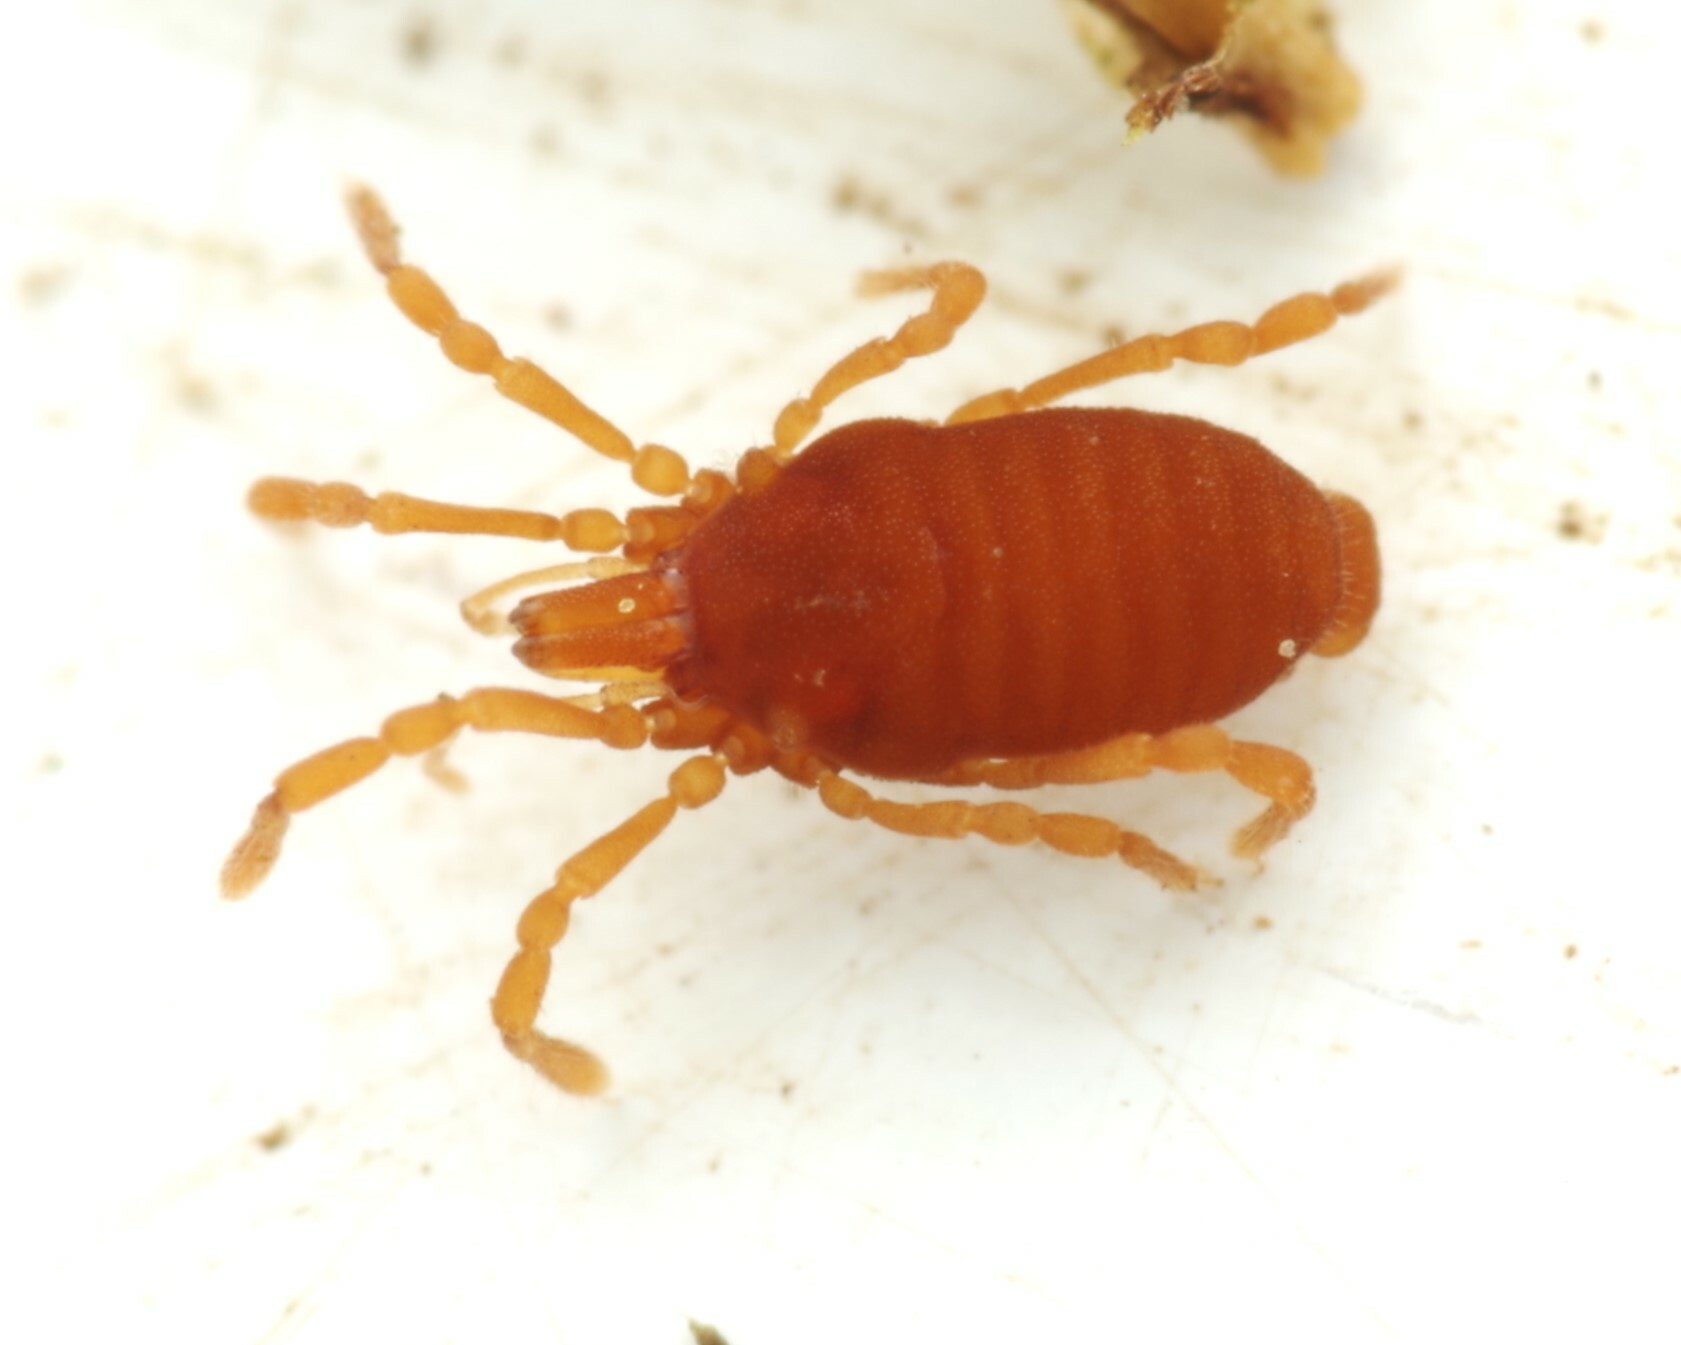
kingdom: Animalia
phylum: Arthropoda
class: Arachnida
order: Opiliones
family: Sironidae
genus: Siro
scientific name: Siro rubens
